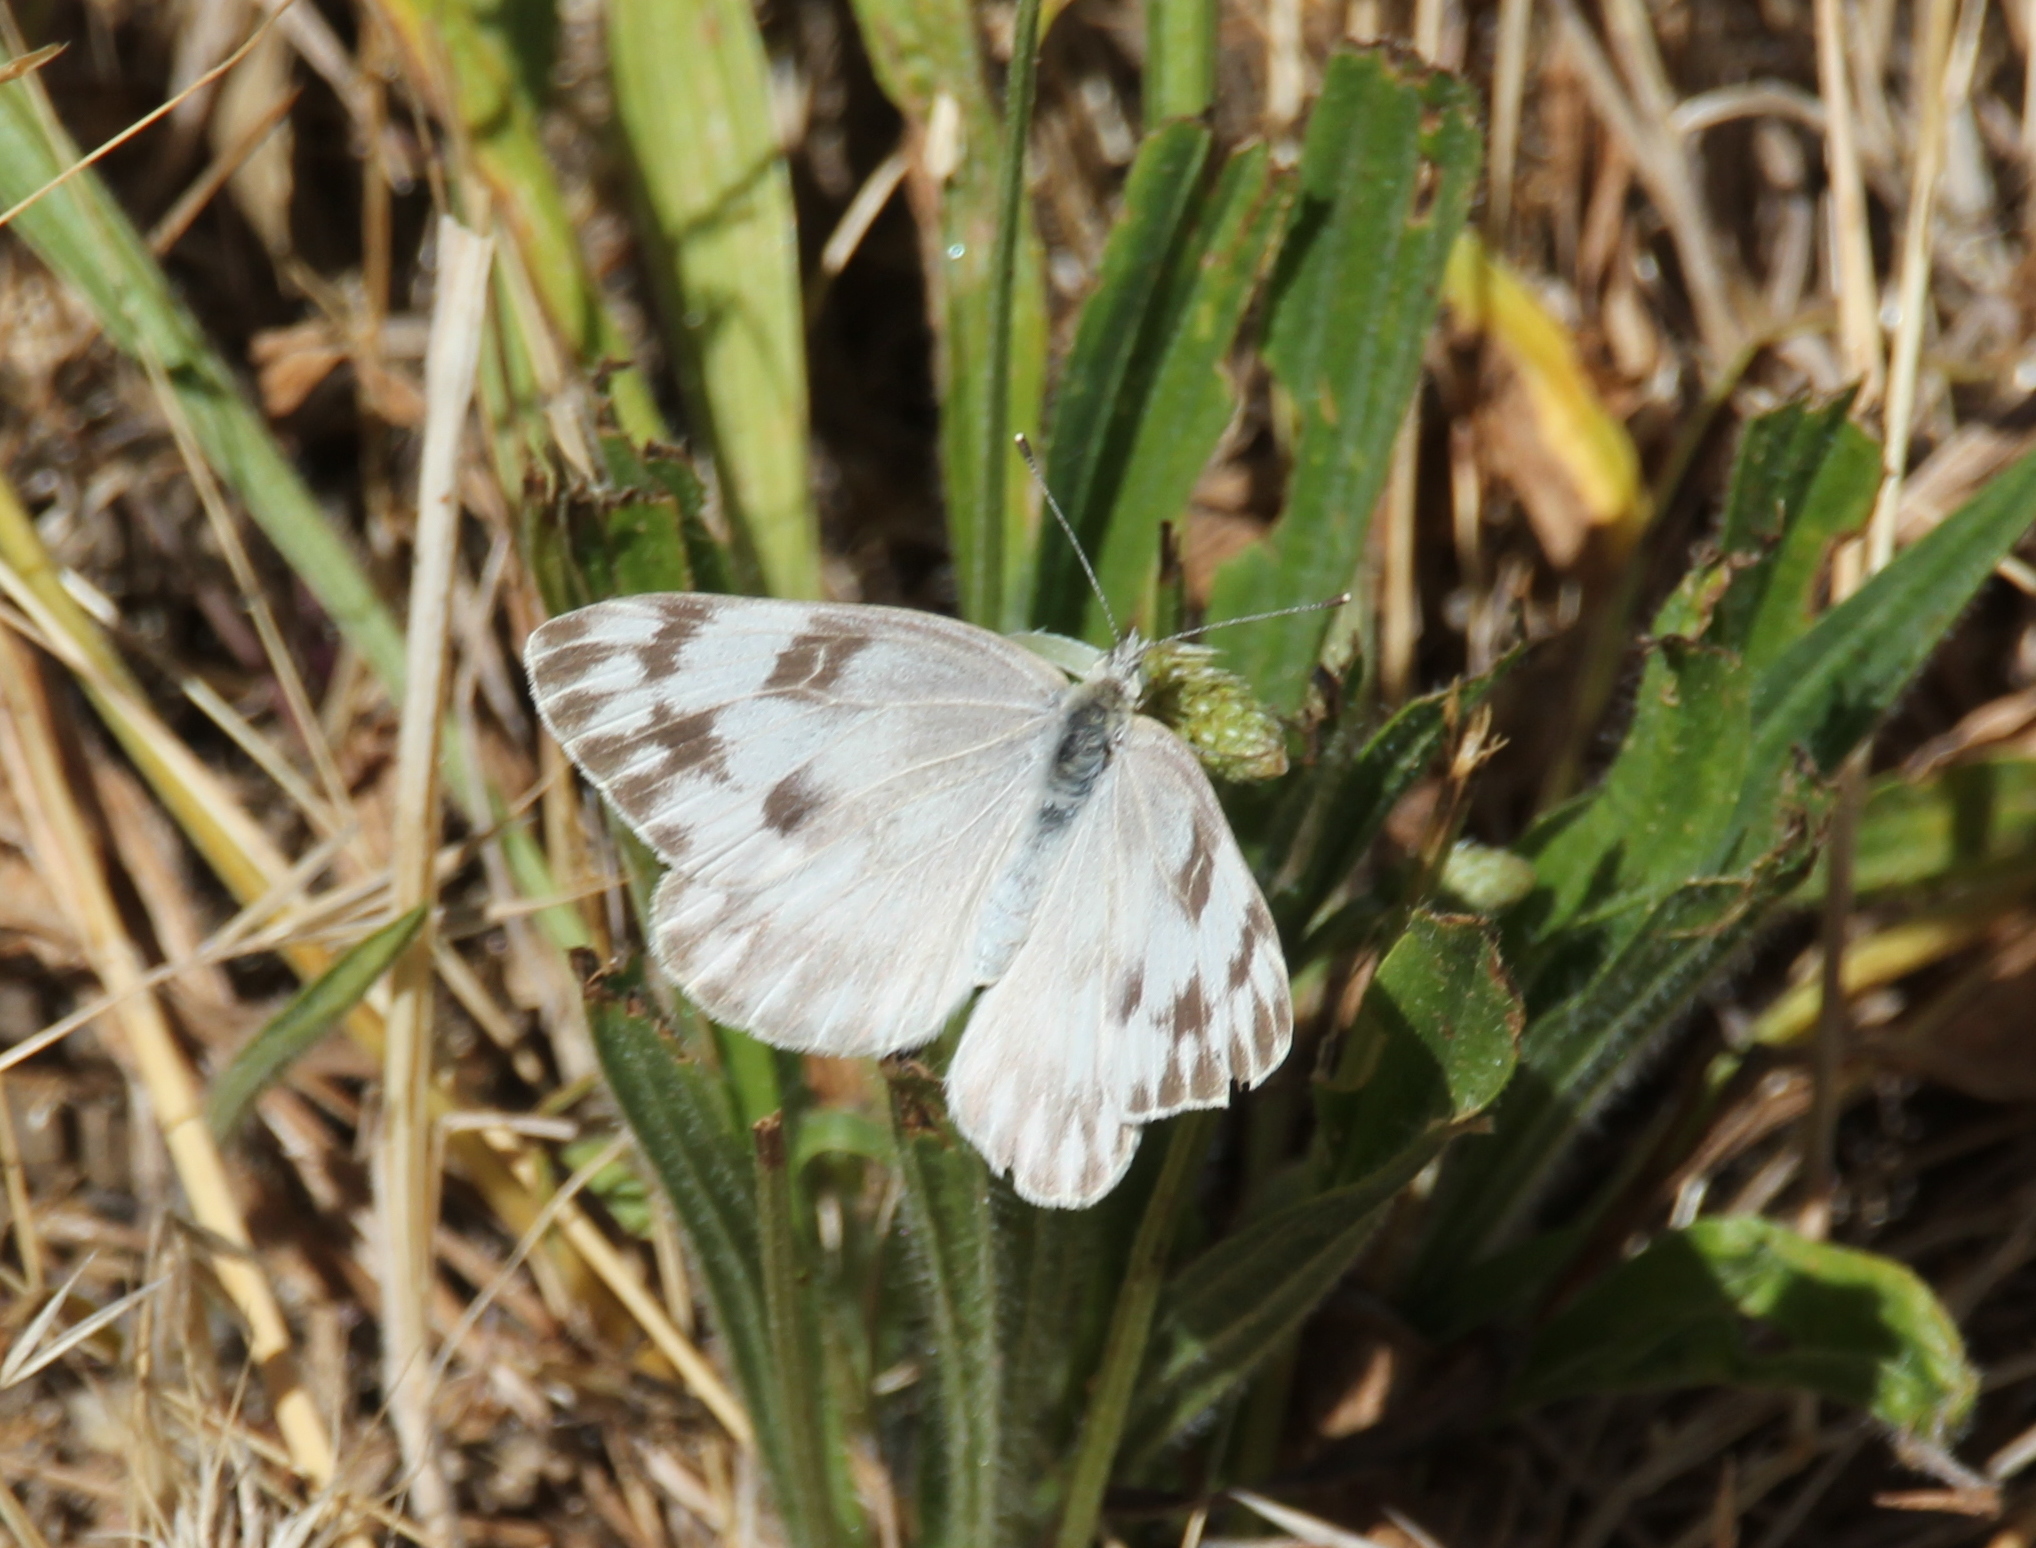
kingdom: Animalia
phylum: Arthropoda
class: Insecta
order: Lepidoptera
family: Pieridae
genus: Pontia
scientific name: Pontia protodice
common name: Checkered white
